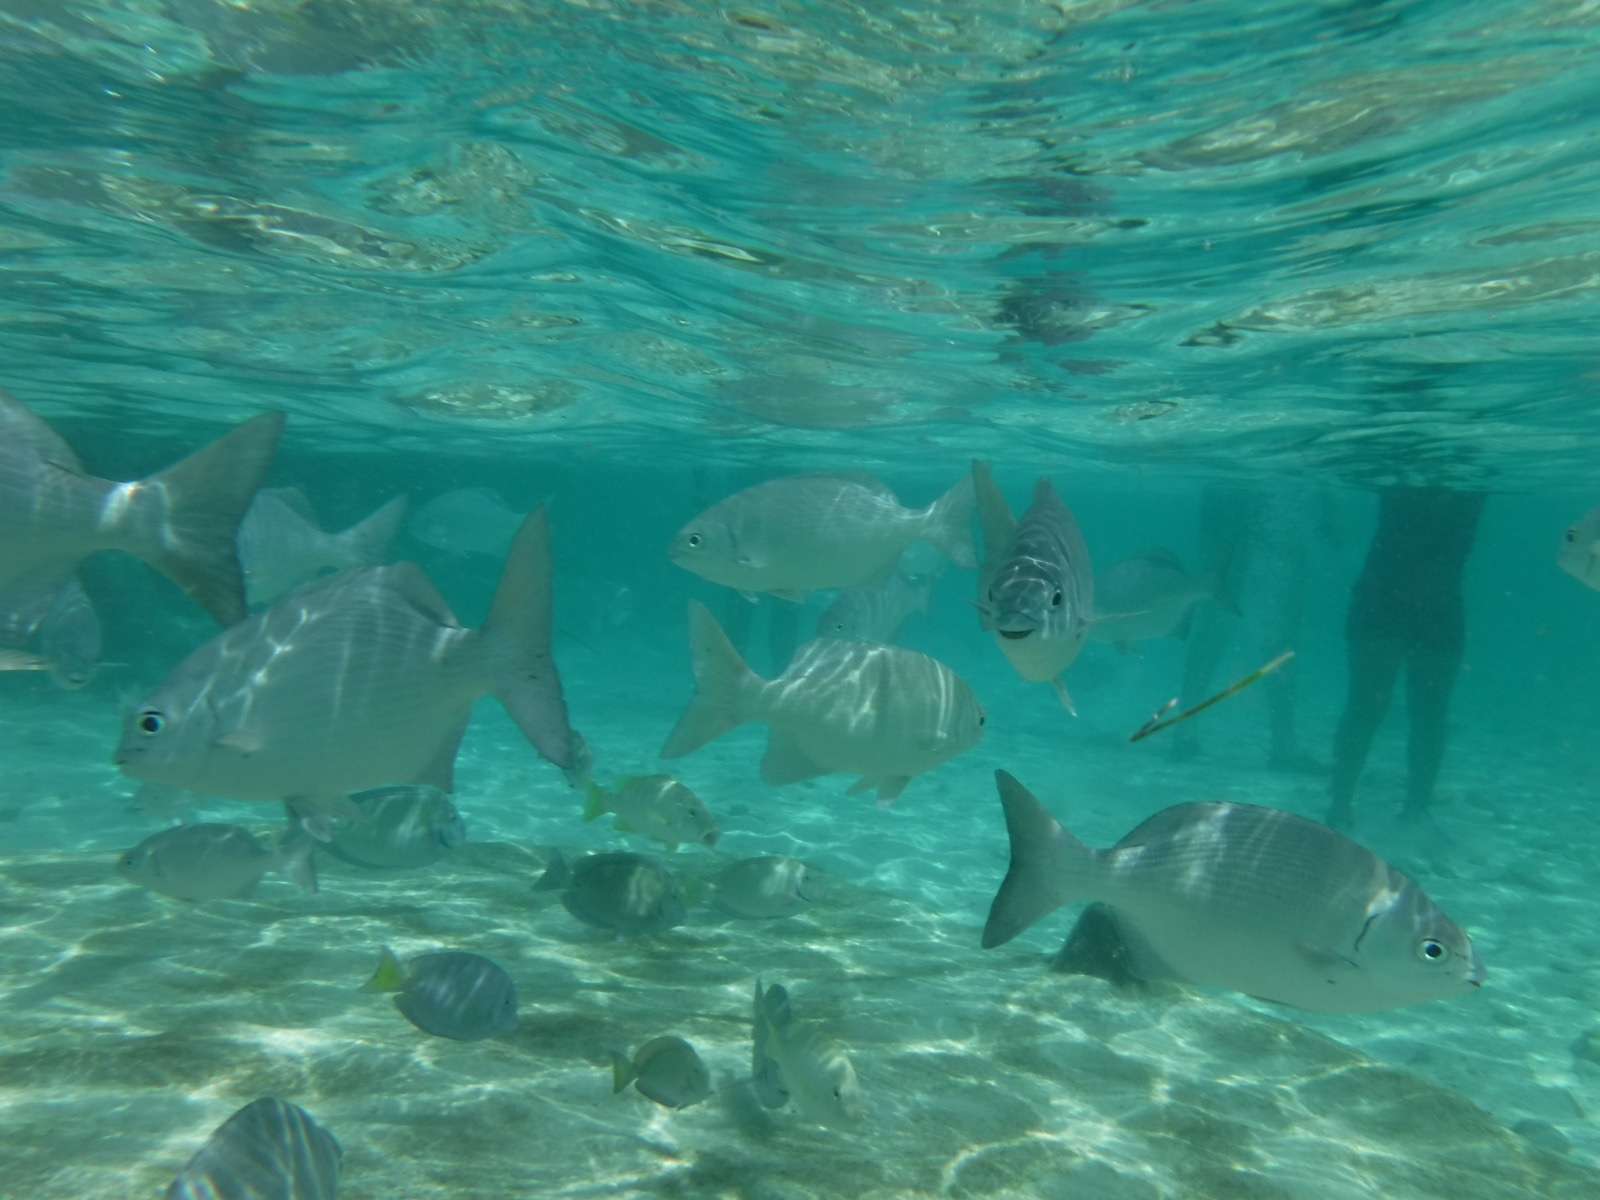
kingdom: Animalia
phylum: Chordata
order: Perciformes
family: Kyphosidae
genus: Kyphosus
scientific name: Kyphosus sectatrix
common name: Bermuda chub
